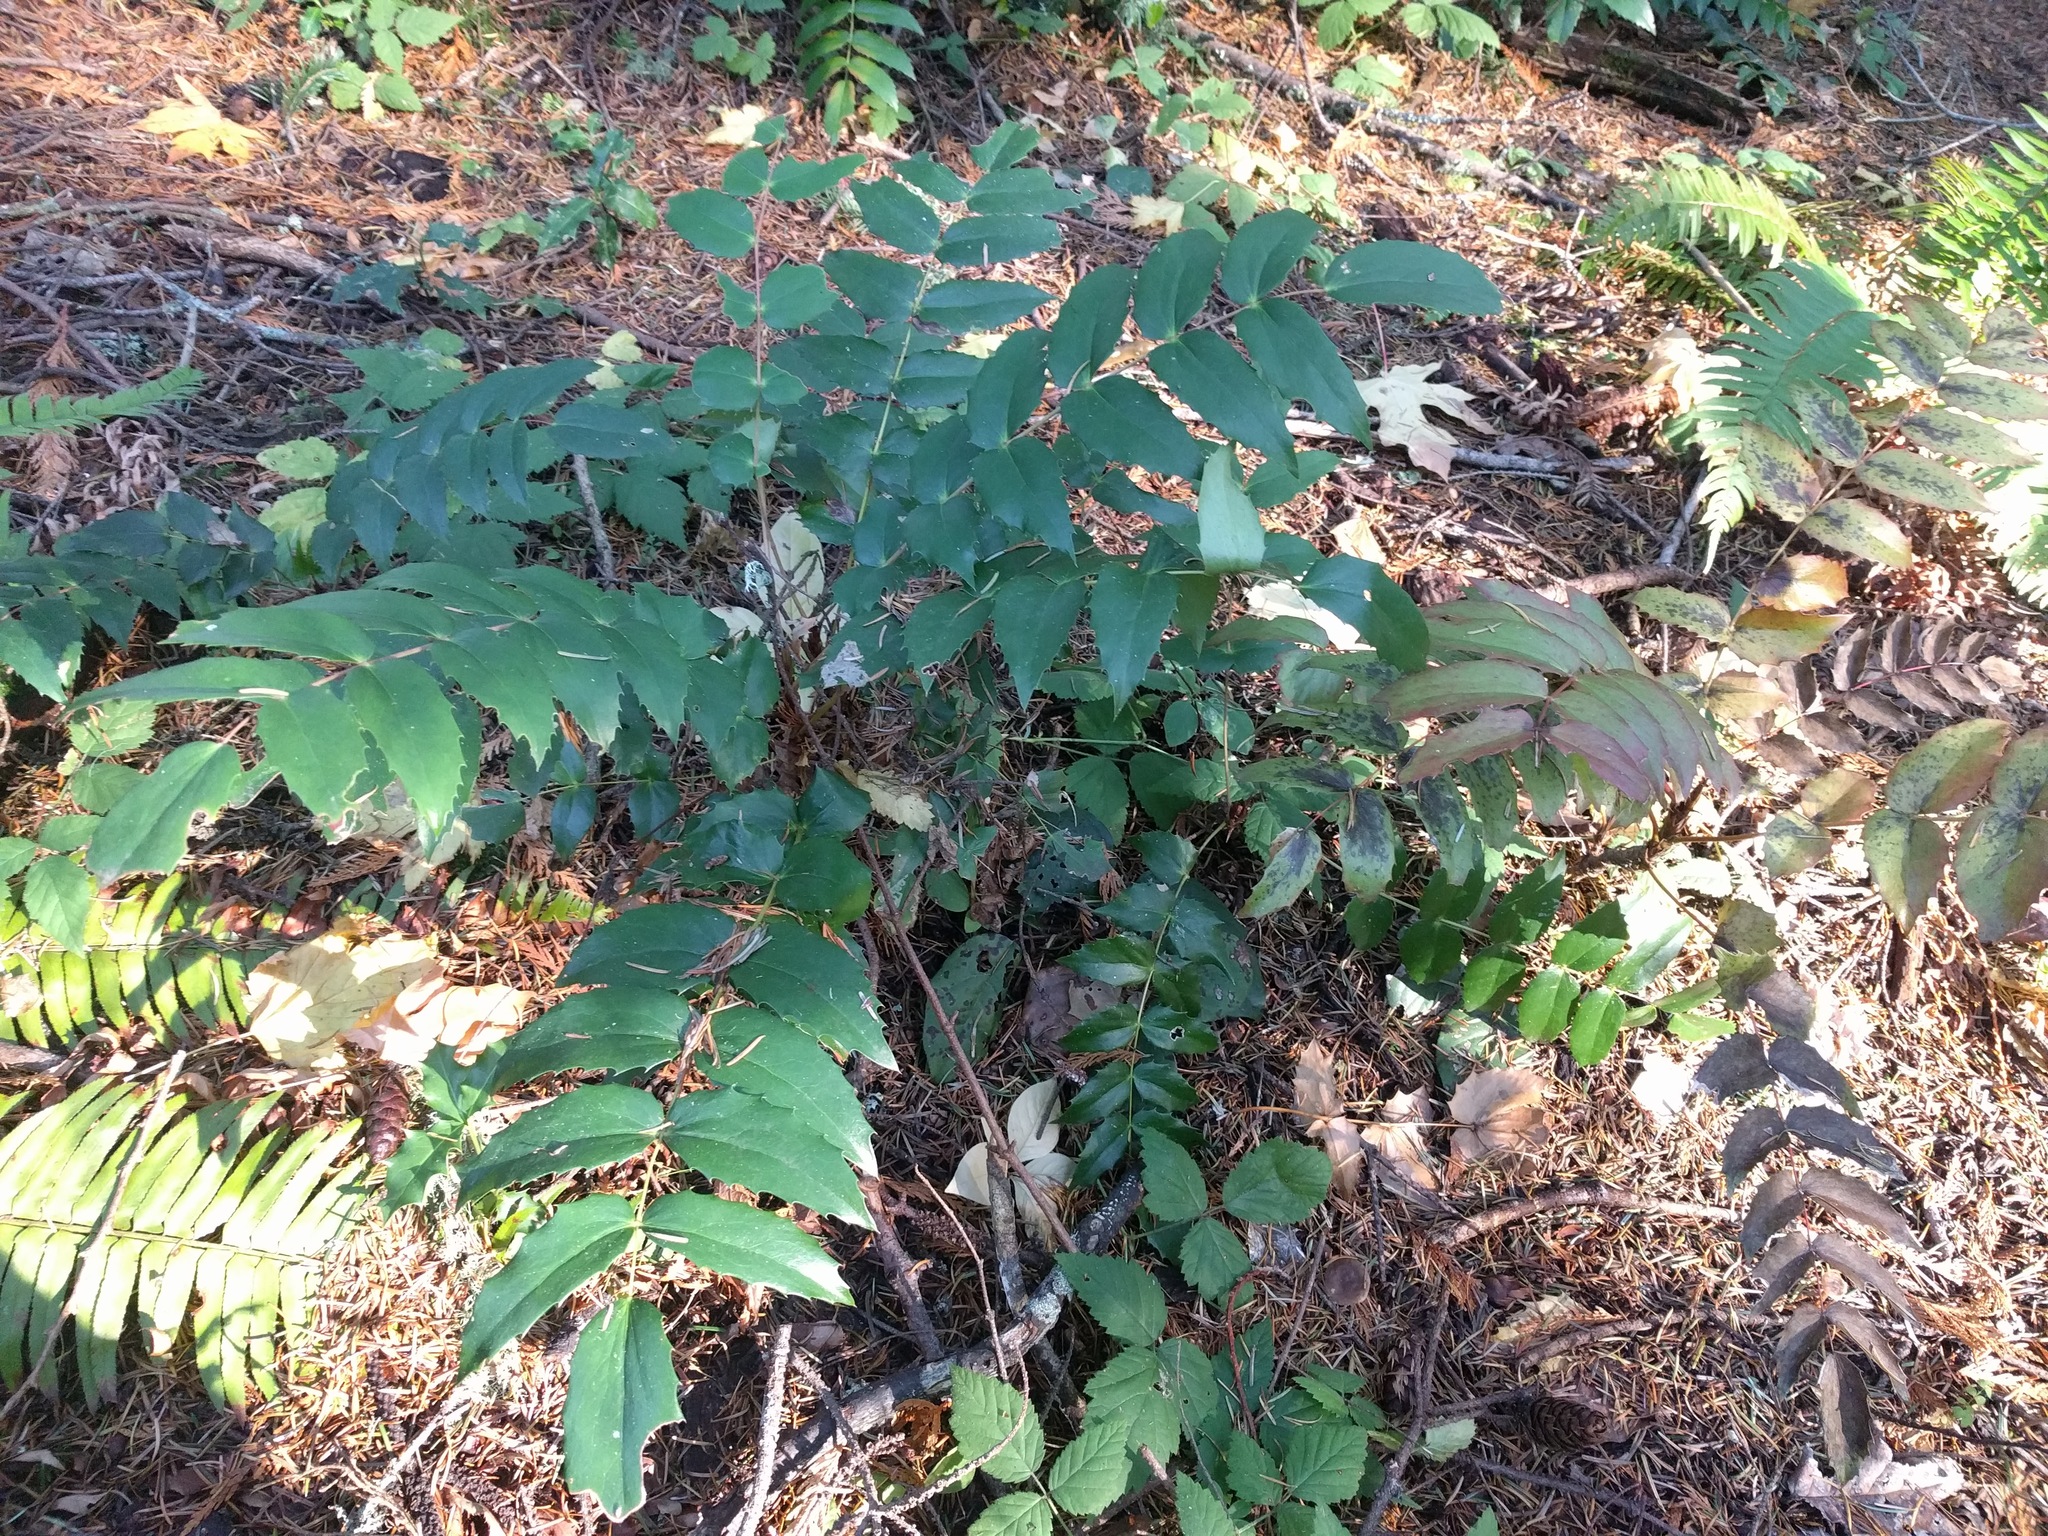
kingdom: Plantae
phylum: Tracheophyta
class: Magnoliopsida
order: Ranunculales
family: Berberidaceae
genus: Mahonia
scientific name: Mahonia nervosa
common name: Cascade oregon-grape
